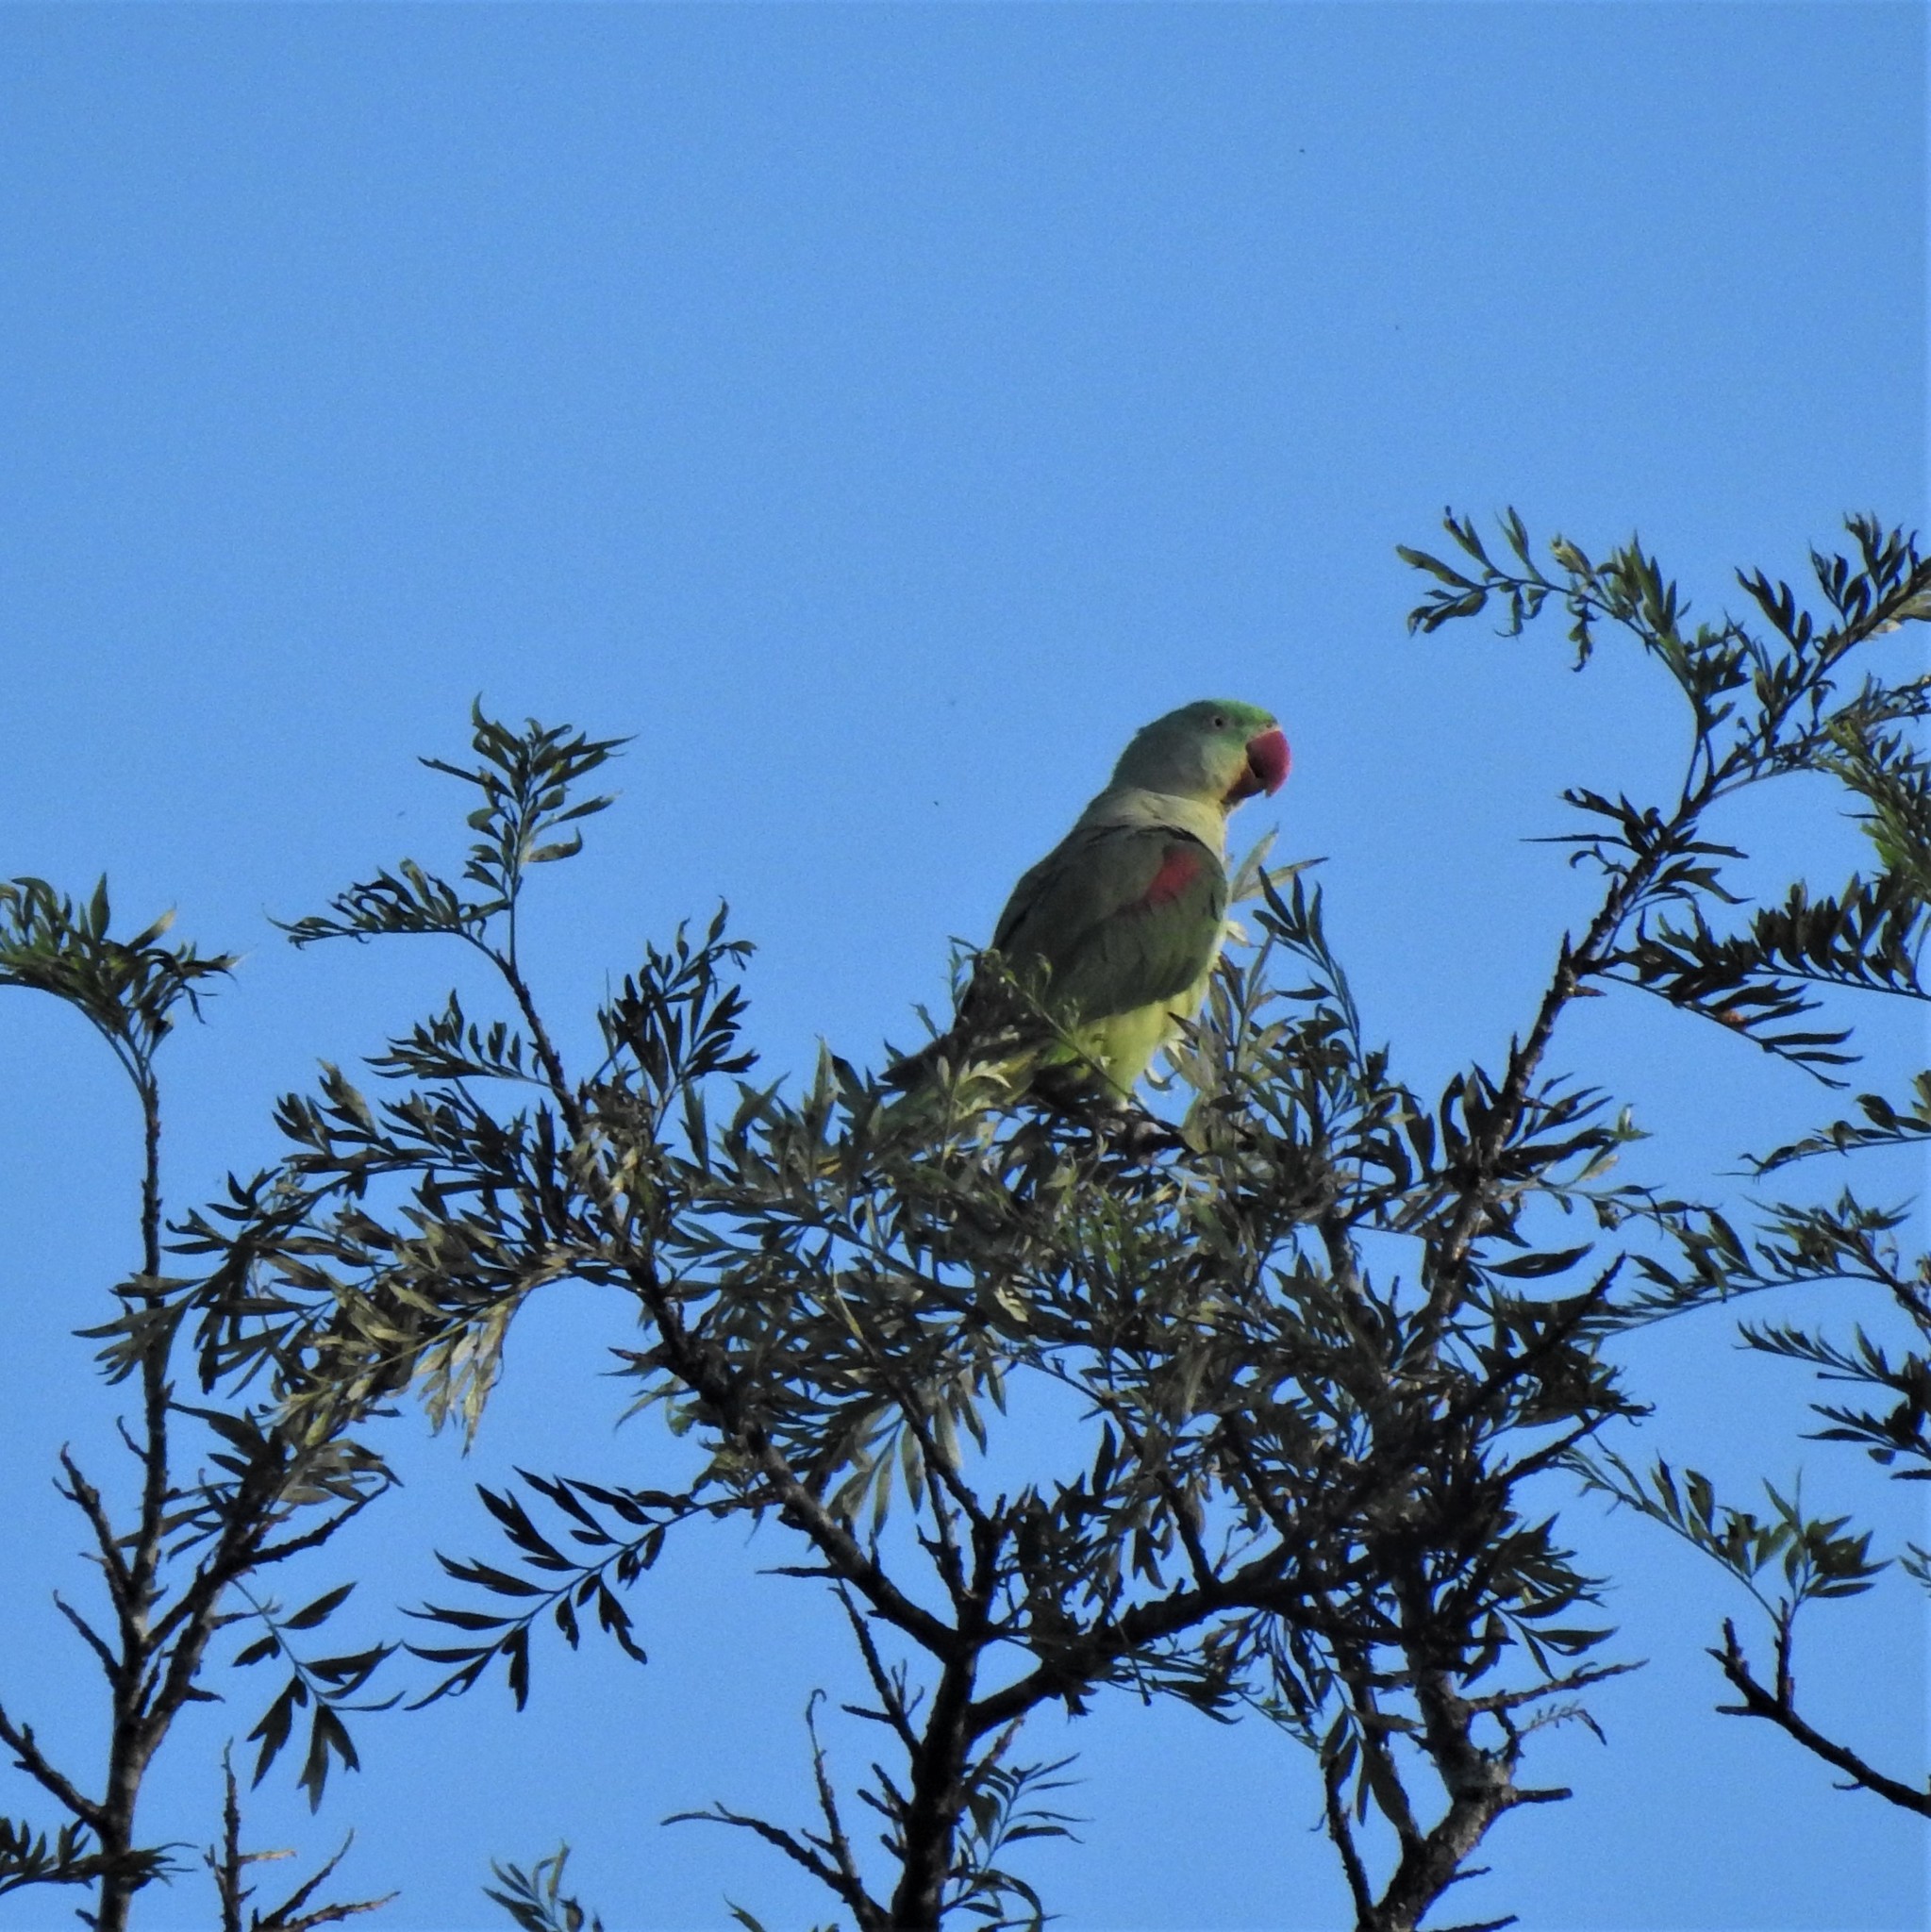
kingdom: Animalia
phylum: Chordata
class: Aves
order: Psittaciformes
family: Psittacidae
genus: Psittacula
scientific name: Psittacula eupatria
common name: Alexandrine parakeet
